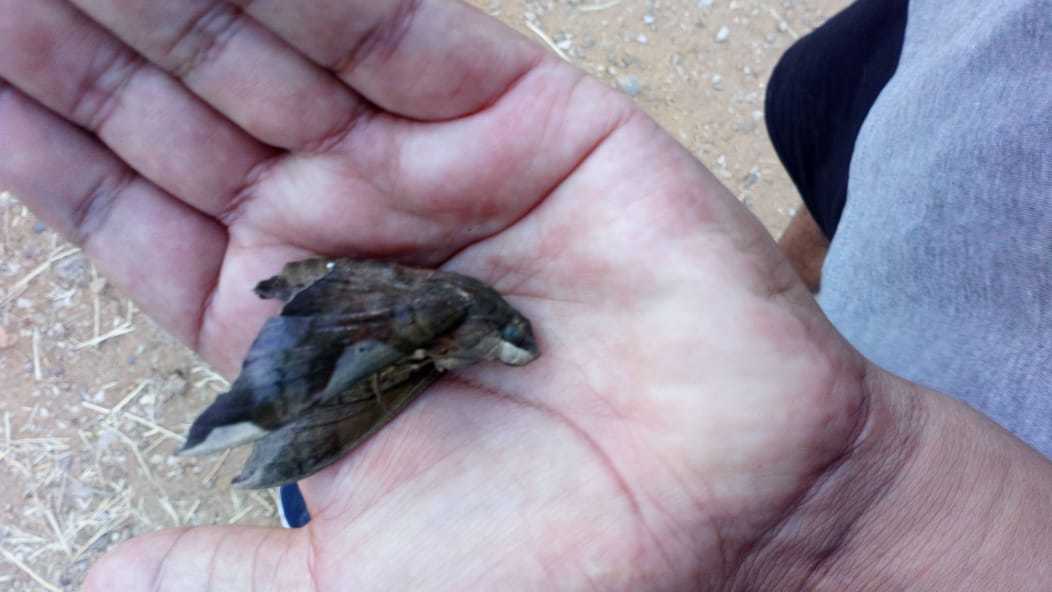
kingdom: Animalia
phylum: Arthropoda
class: Insecta
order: Lepidoptera
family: Sphingidae
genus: Pachylia
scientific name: Pachylia syces
